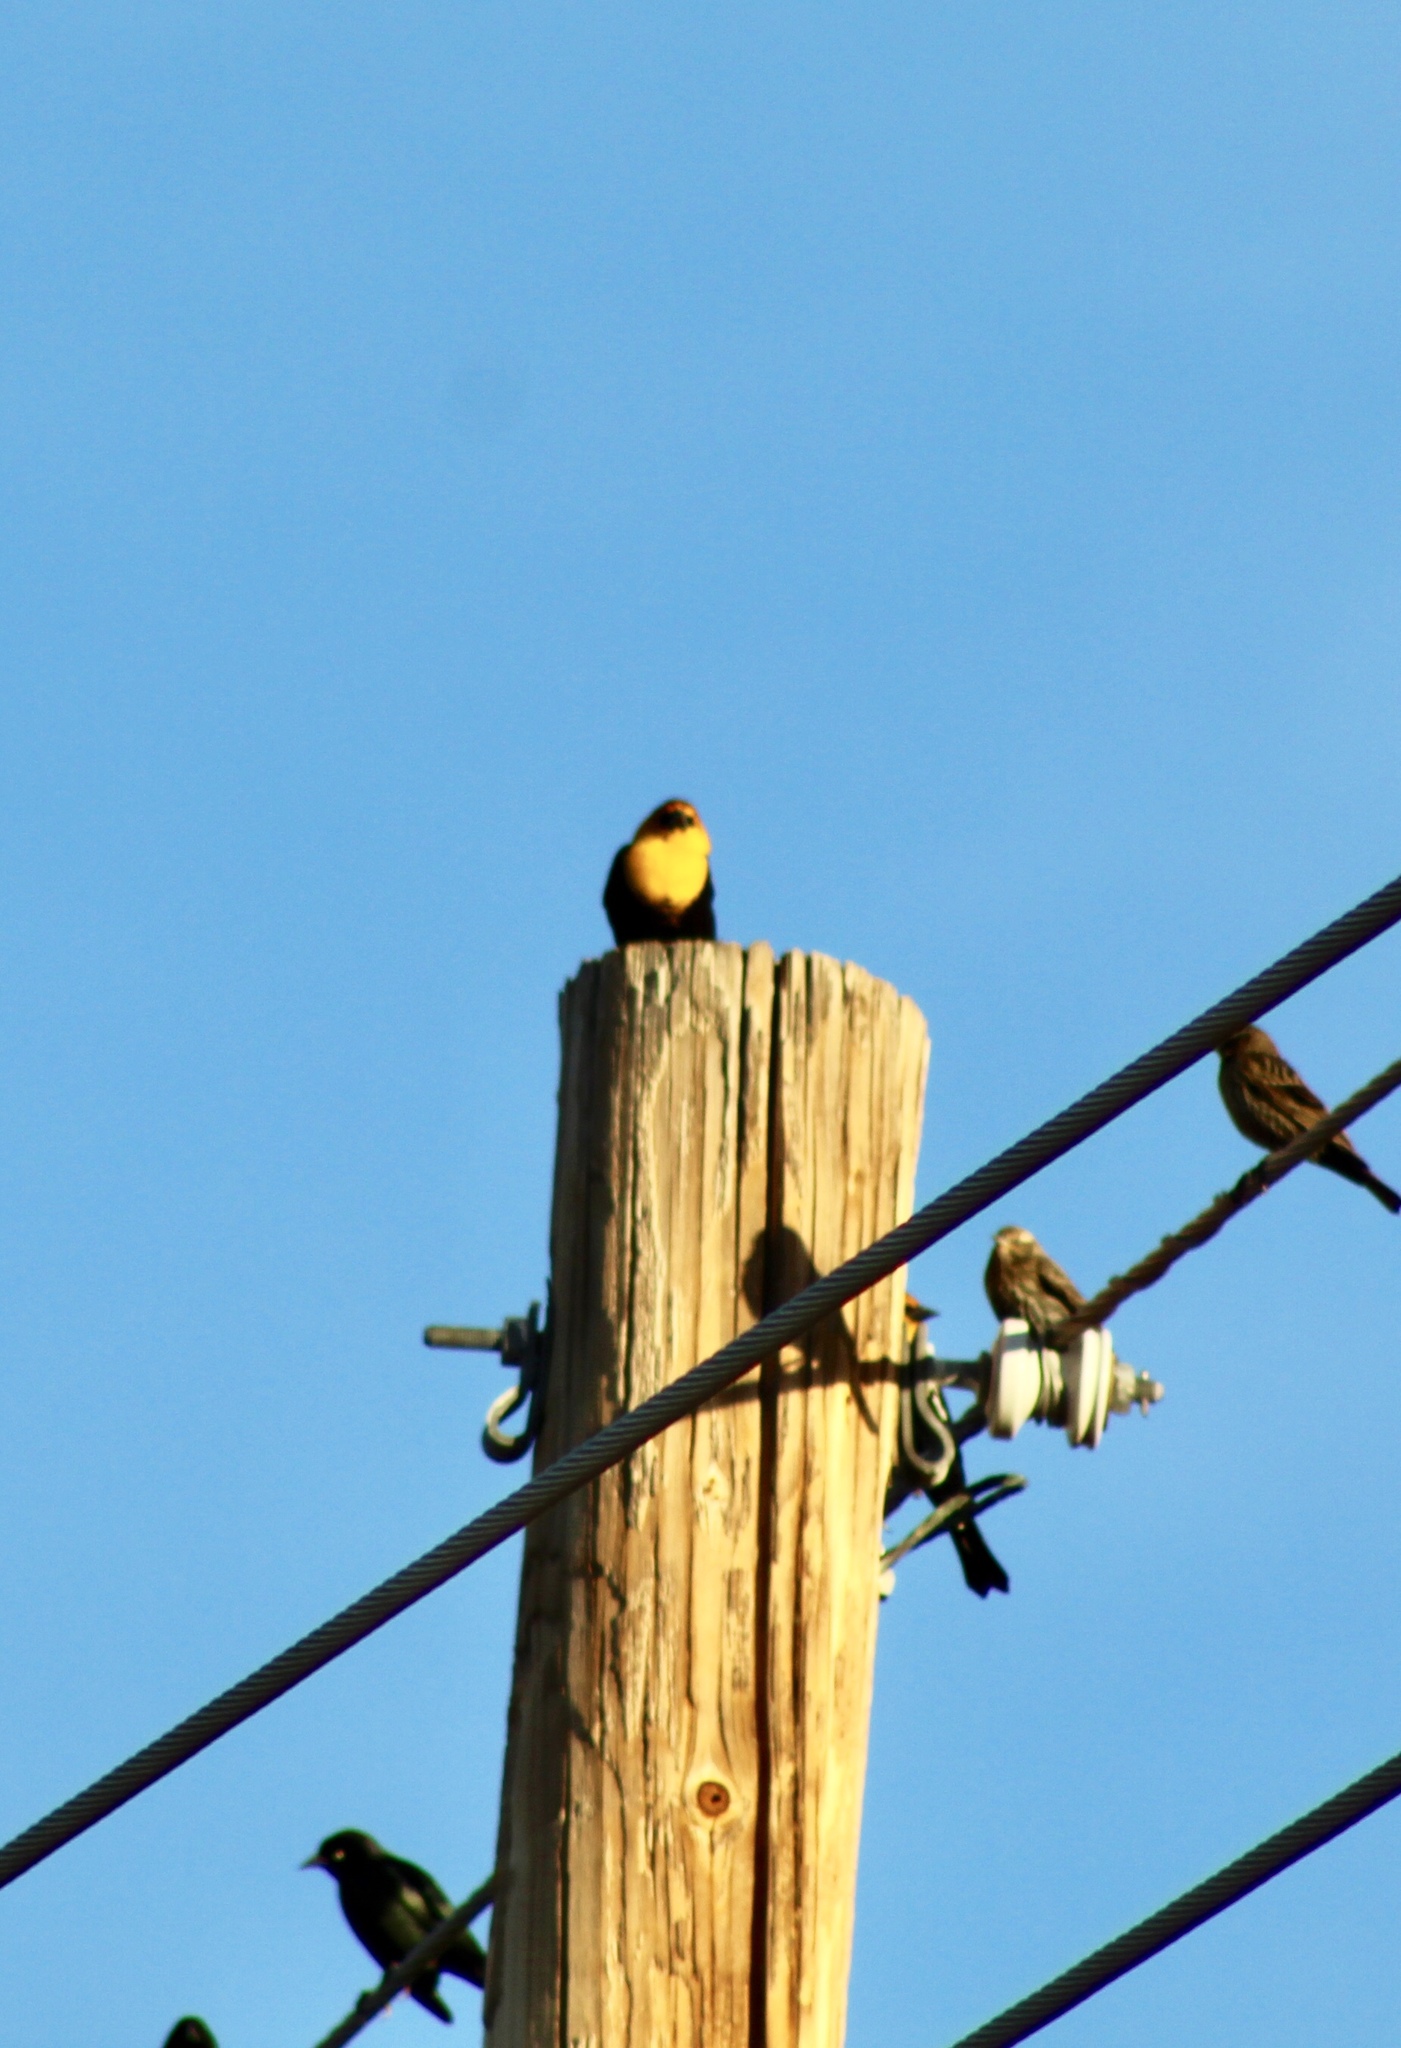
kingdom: Animalia
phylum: Chordata
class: Aves
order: Passeriformes
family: Icteridae
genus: Xanthocephalus
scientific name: Xanthocephalus xanthocephalus
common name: Yellow-headed blackbird
